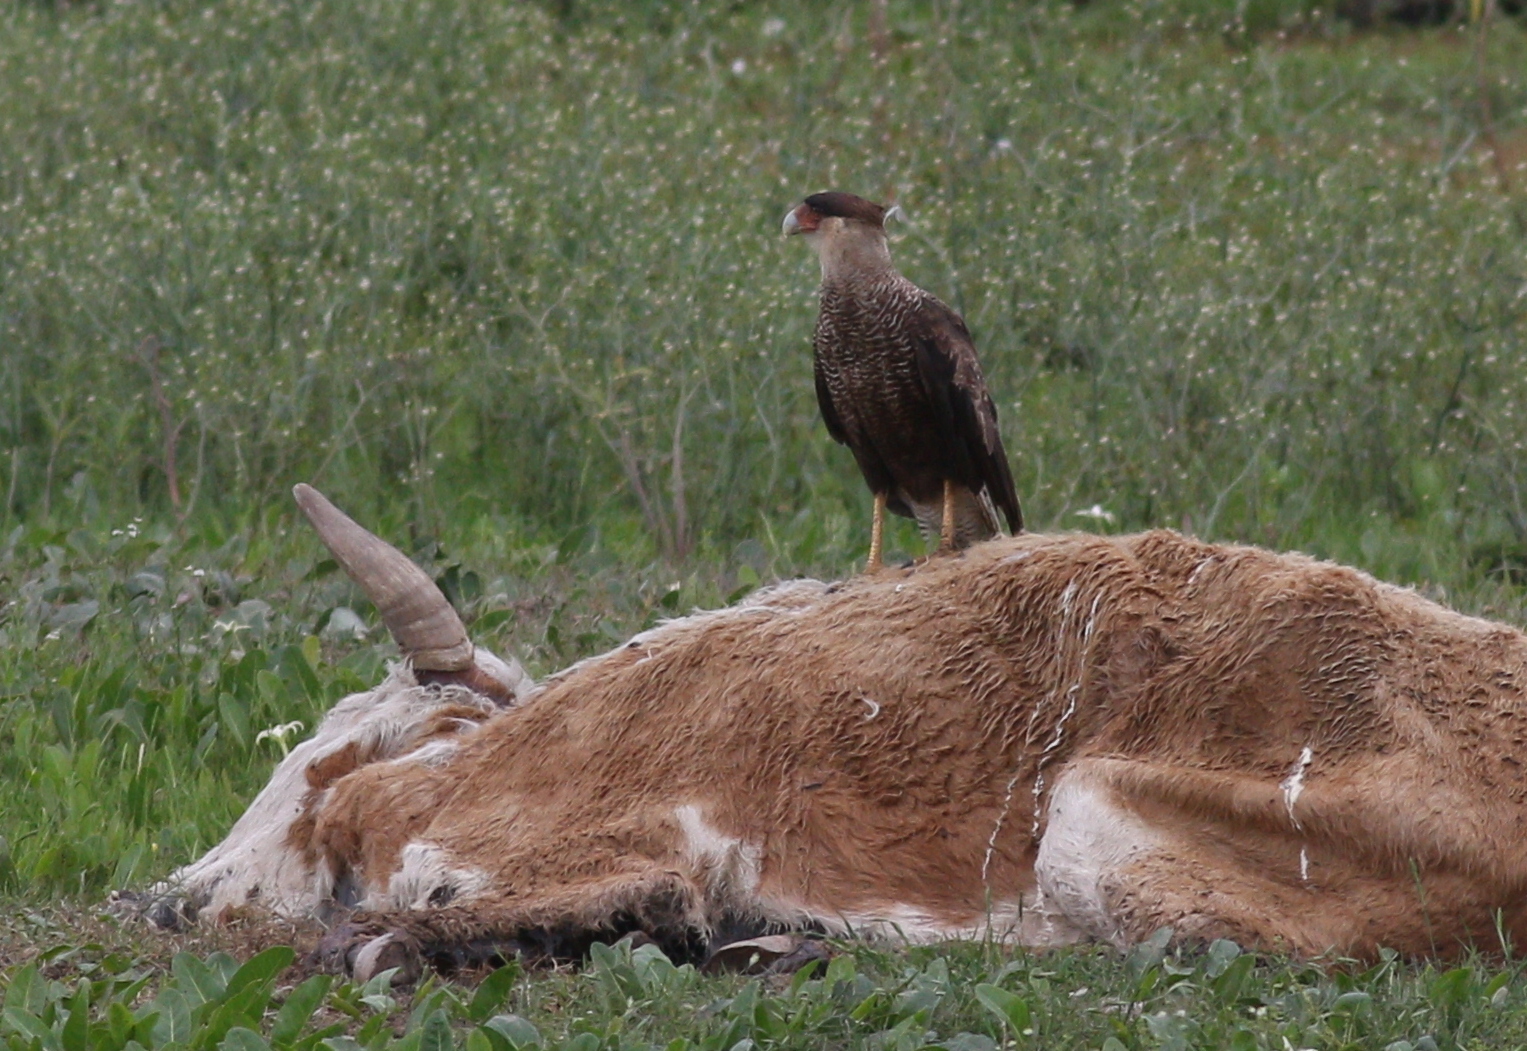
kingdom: Animalia
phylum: Chordata
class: Aves
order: Falconiformes
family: Falconidae
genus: Caracara
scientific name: Caracara plancus
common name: Southern caracara
